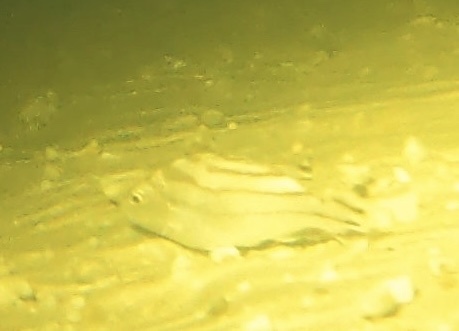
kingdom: Animalia
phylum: Chordata
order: Perciformes
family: Terapontidae
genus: Terapon
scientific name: Terapon jarbua
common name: Jarbua terapon
